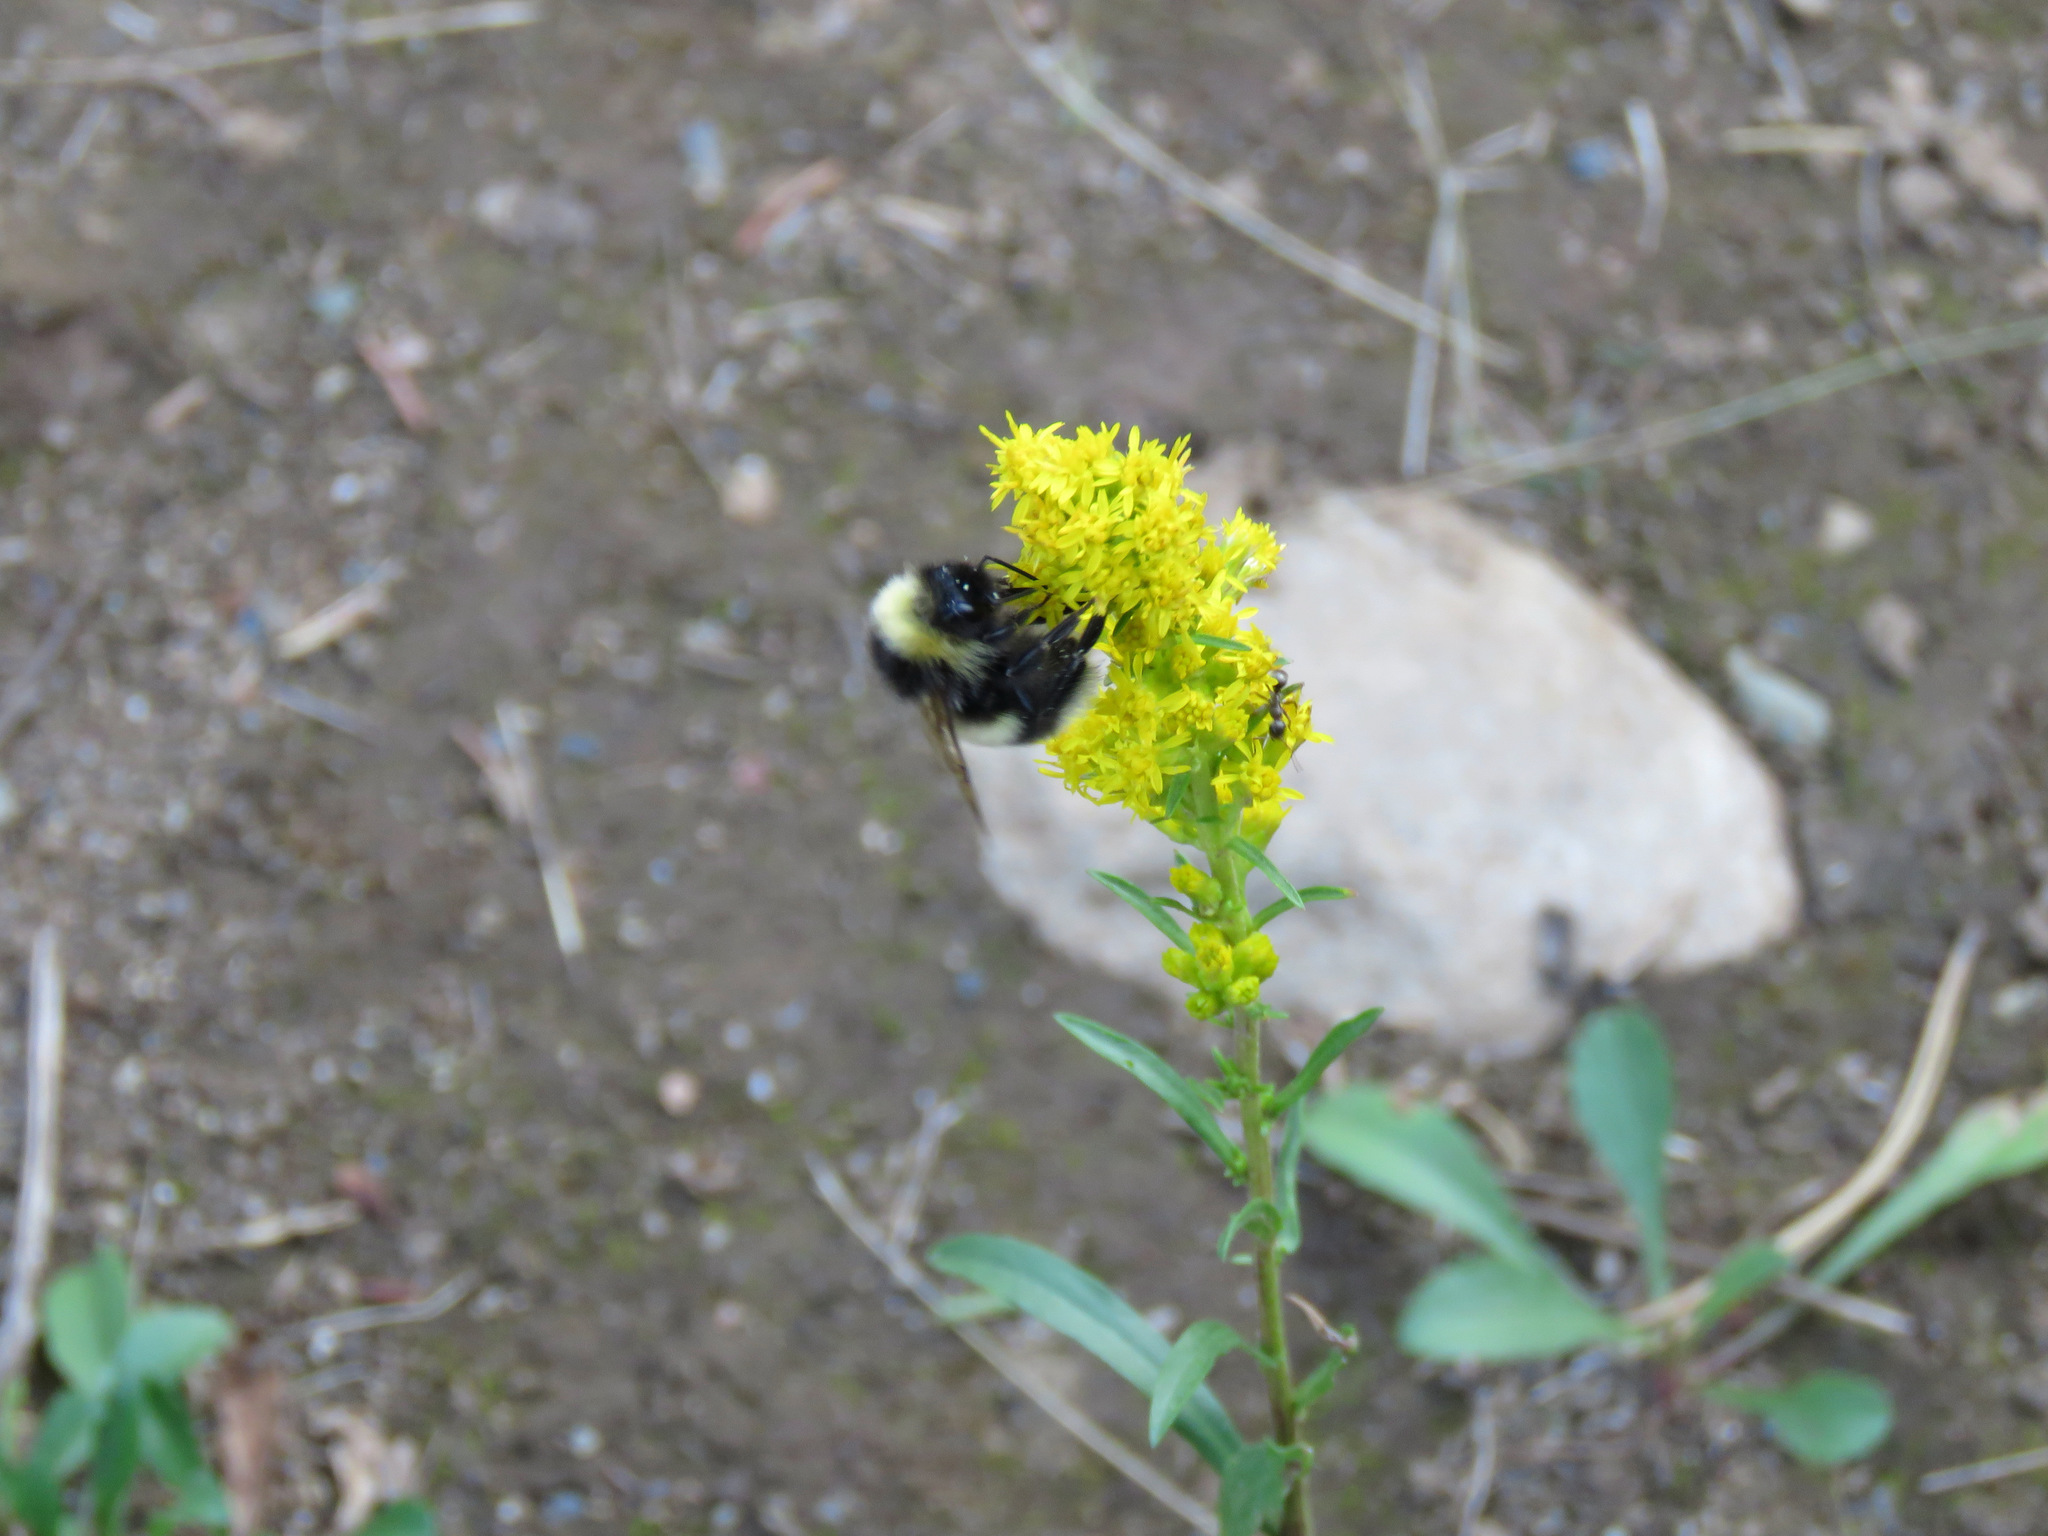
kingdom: Animalia
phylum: Arthropoda
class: Insecta
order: Hymenoptera
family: Apidae
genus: Bombus
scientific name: Bombus cryptarum
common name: Cryptic bumblebee
